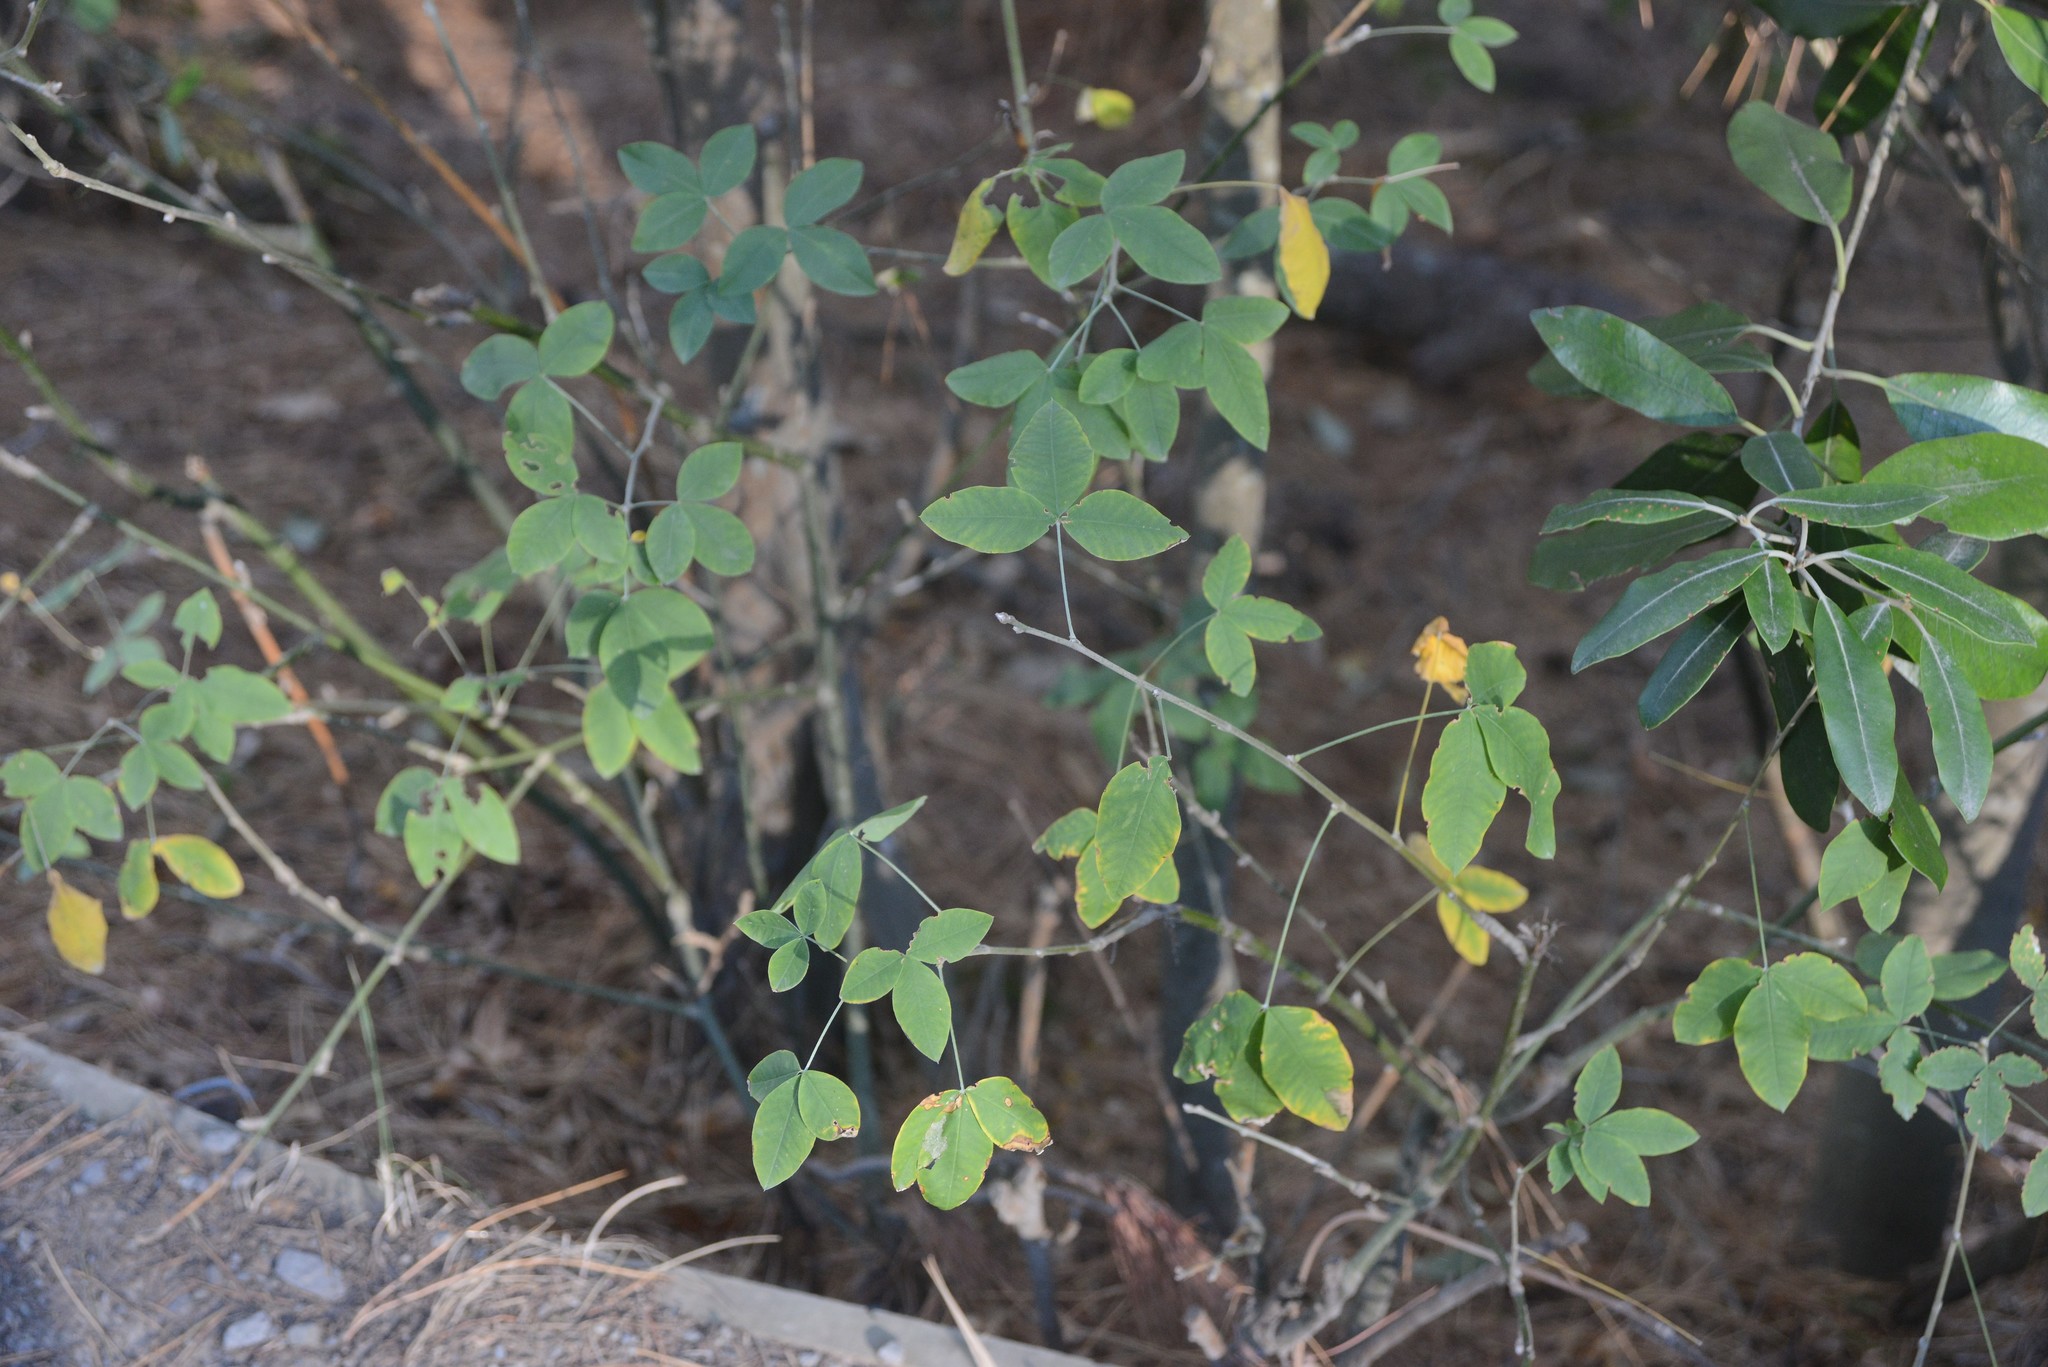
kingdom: Plantae
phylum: Tracheophyta
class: Magnoliopsida
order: Fabales
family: Fabaceae
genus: Laburnum
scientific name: Laburnum anagyroides
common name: Laburnum
